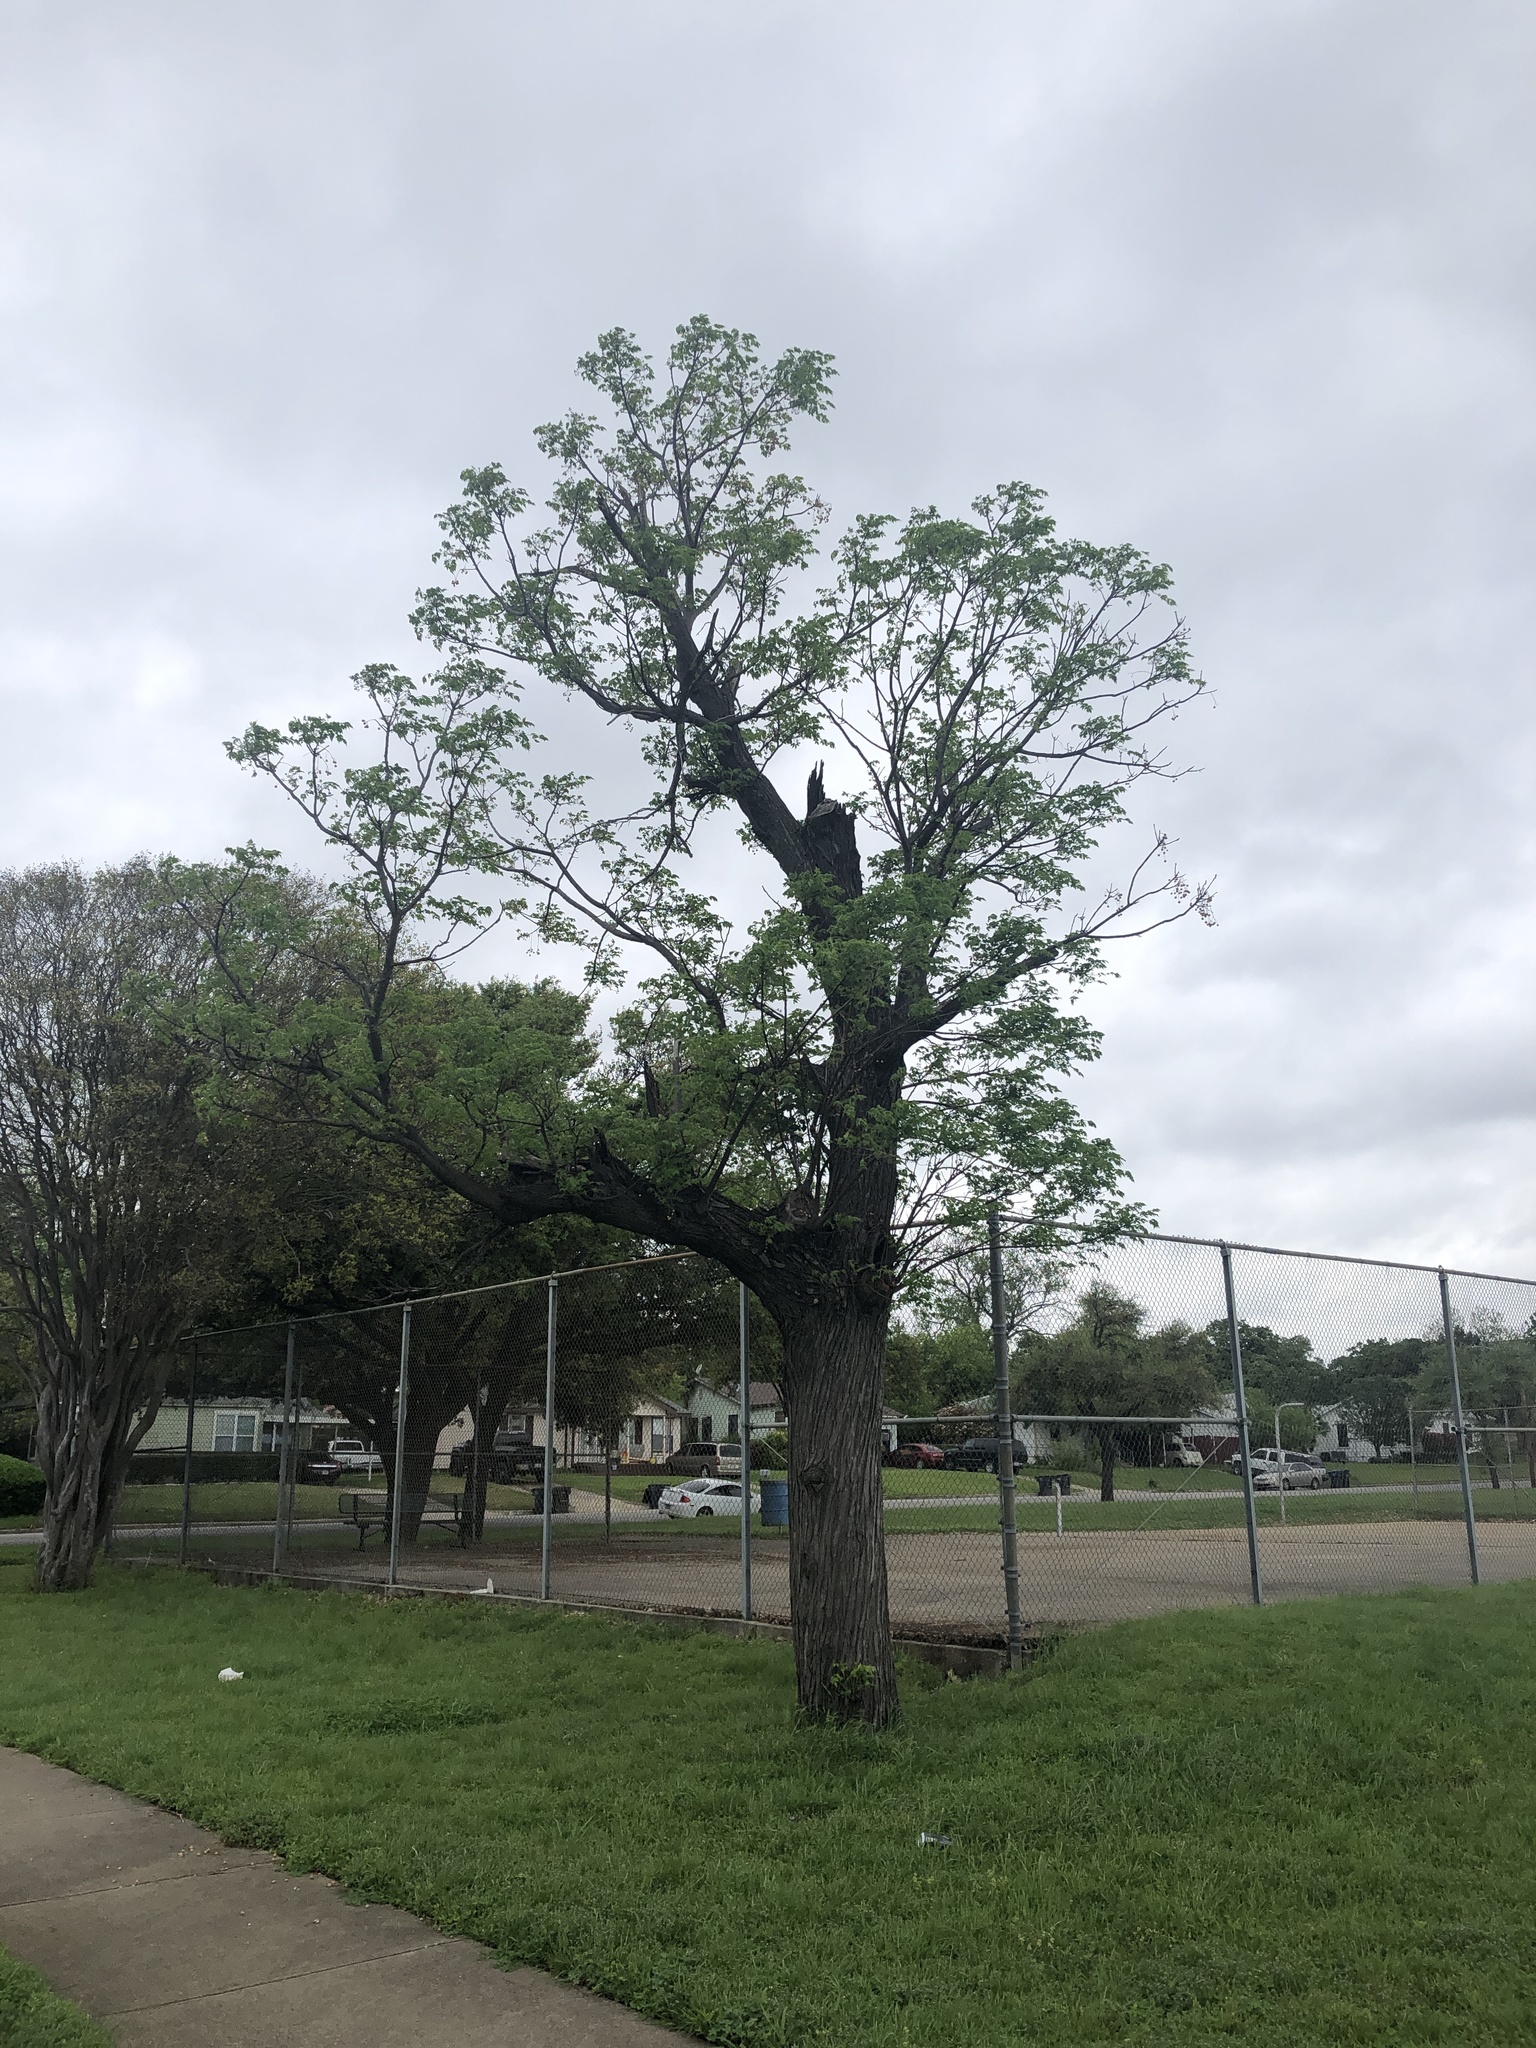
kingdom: Plantae
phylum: Tracheophyta
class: Magnoliopsida
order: Sapindales
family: Meliaceae
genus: Melia
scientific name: Melia azedarach
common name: Chinaberrytree
